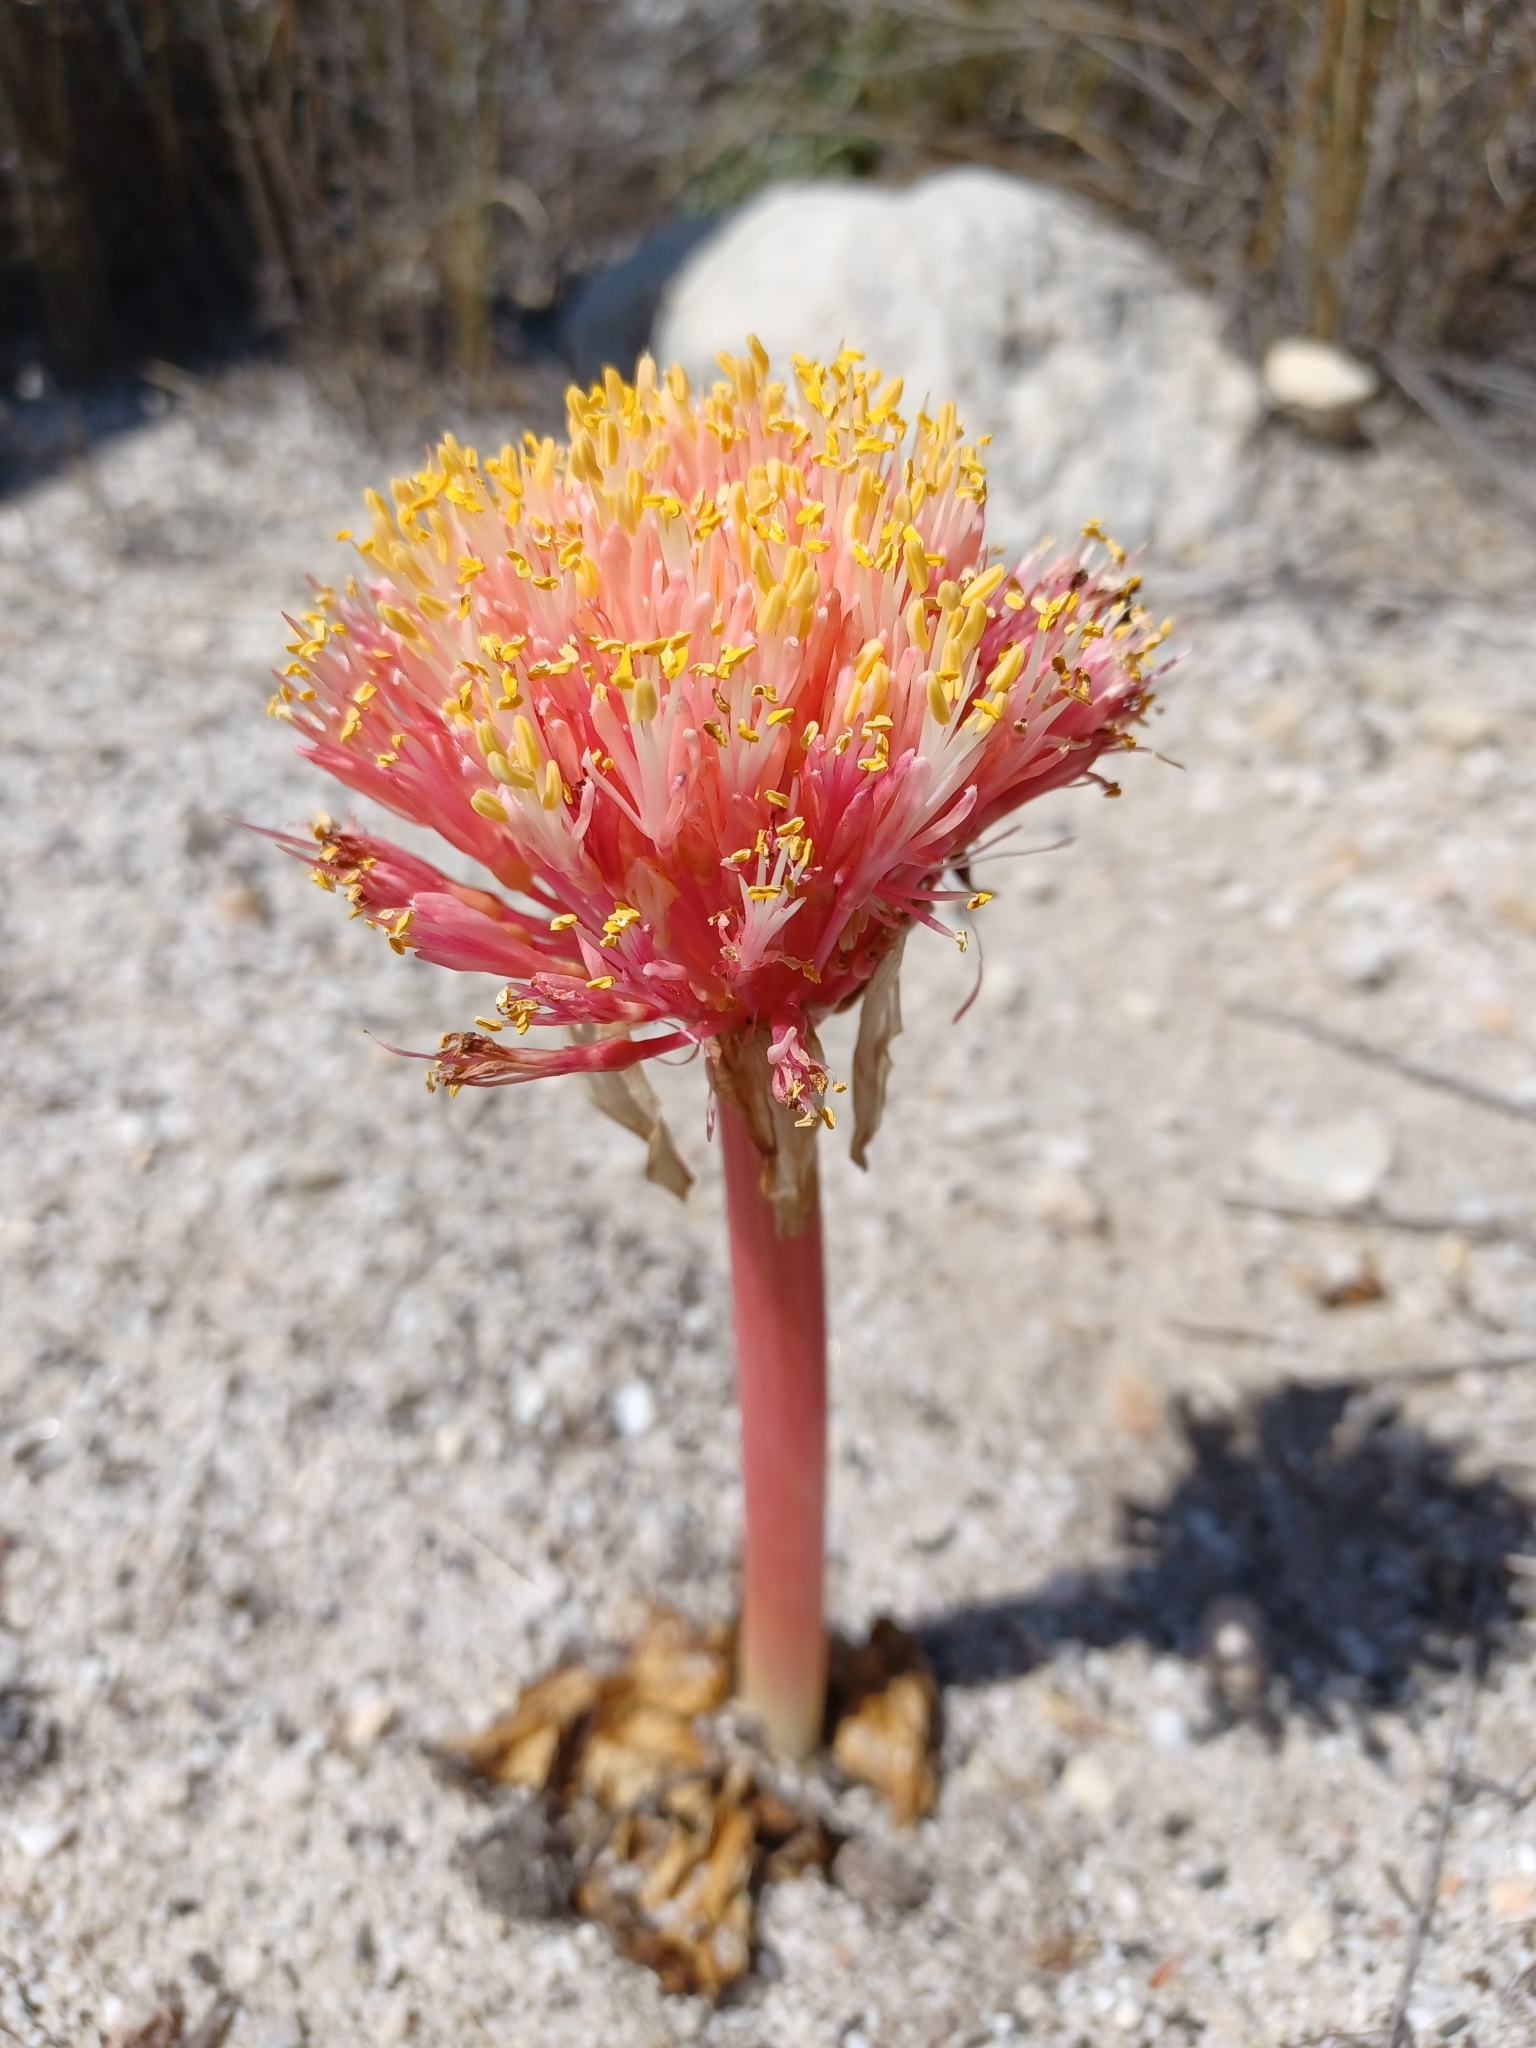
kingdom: Plantae
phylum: Tracheophyta
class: Liliopsida
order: Asparagales
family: Amaryllidaceae
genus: Haemanthus
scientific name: Haemanthus sanguineus
